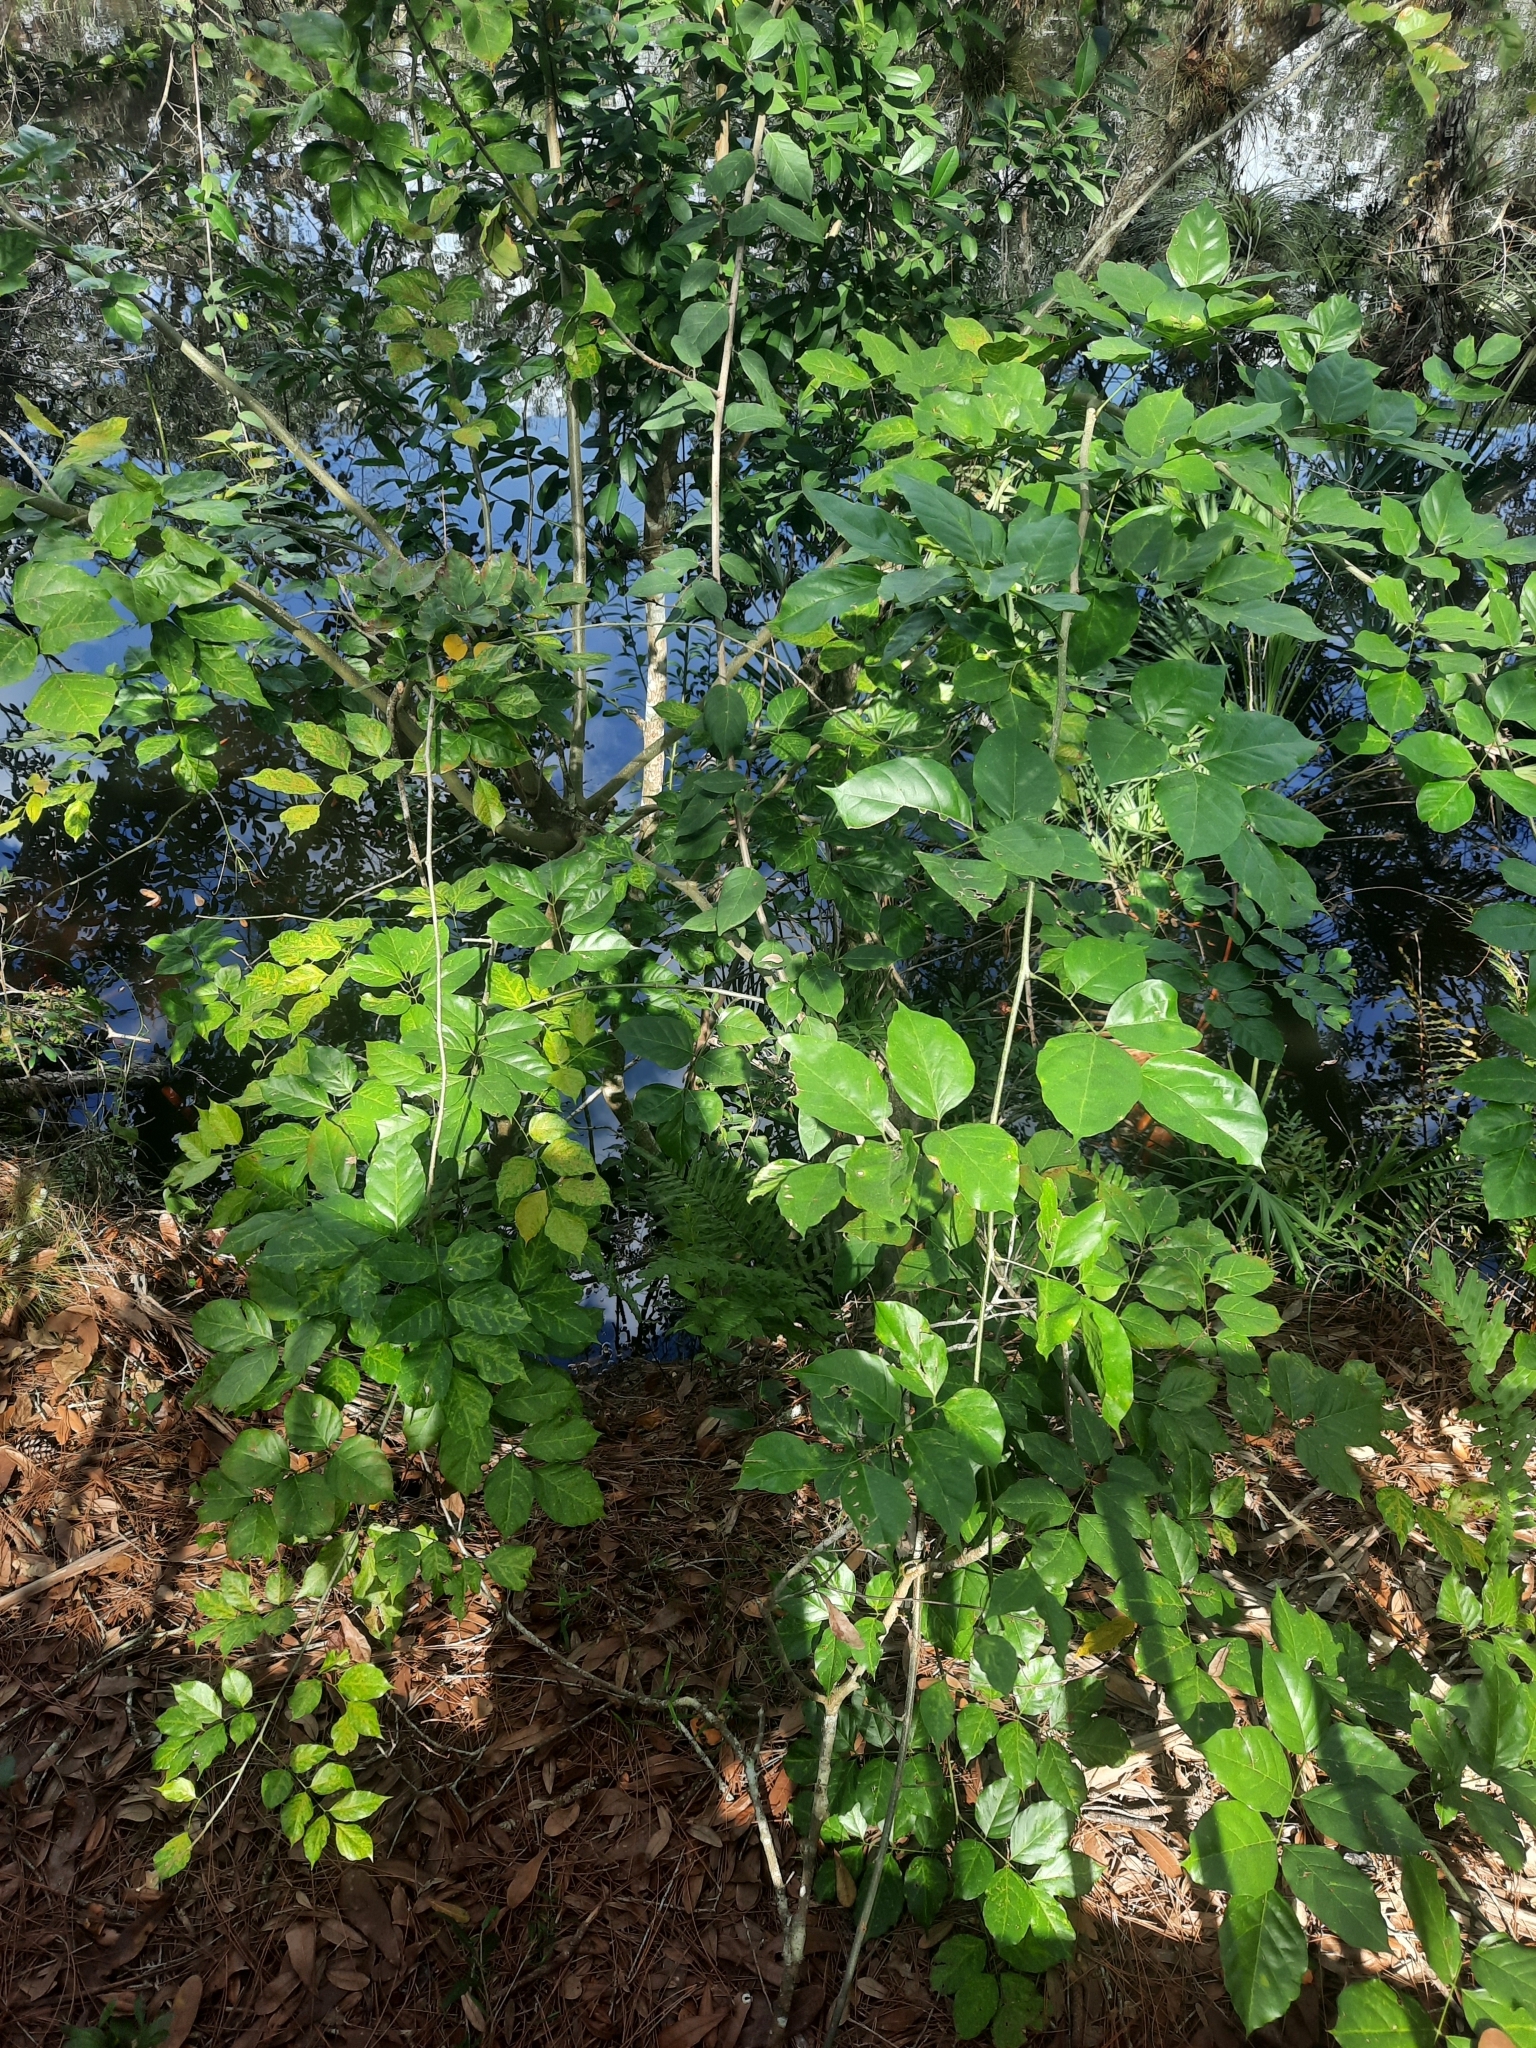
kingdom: Plantae
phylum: Tracheophyta
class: Magnoliopsida
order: Fabales
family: Fabaceae
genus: Pongamia
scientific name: Pongamia pinnata
